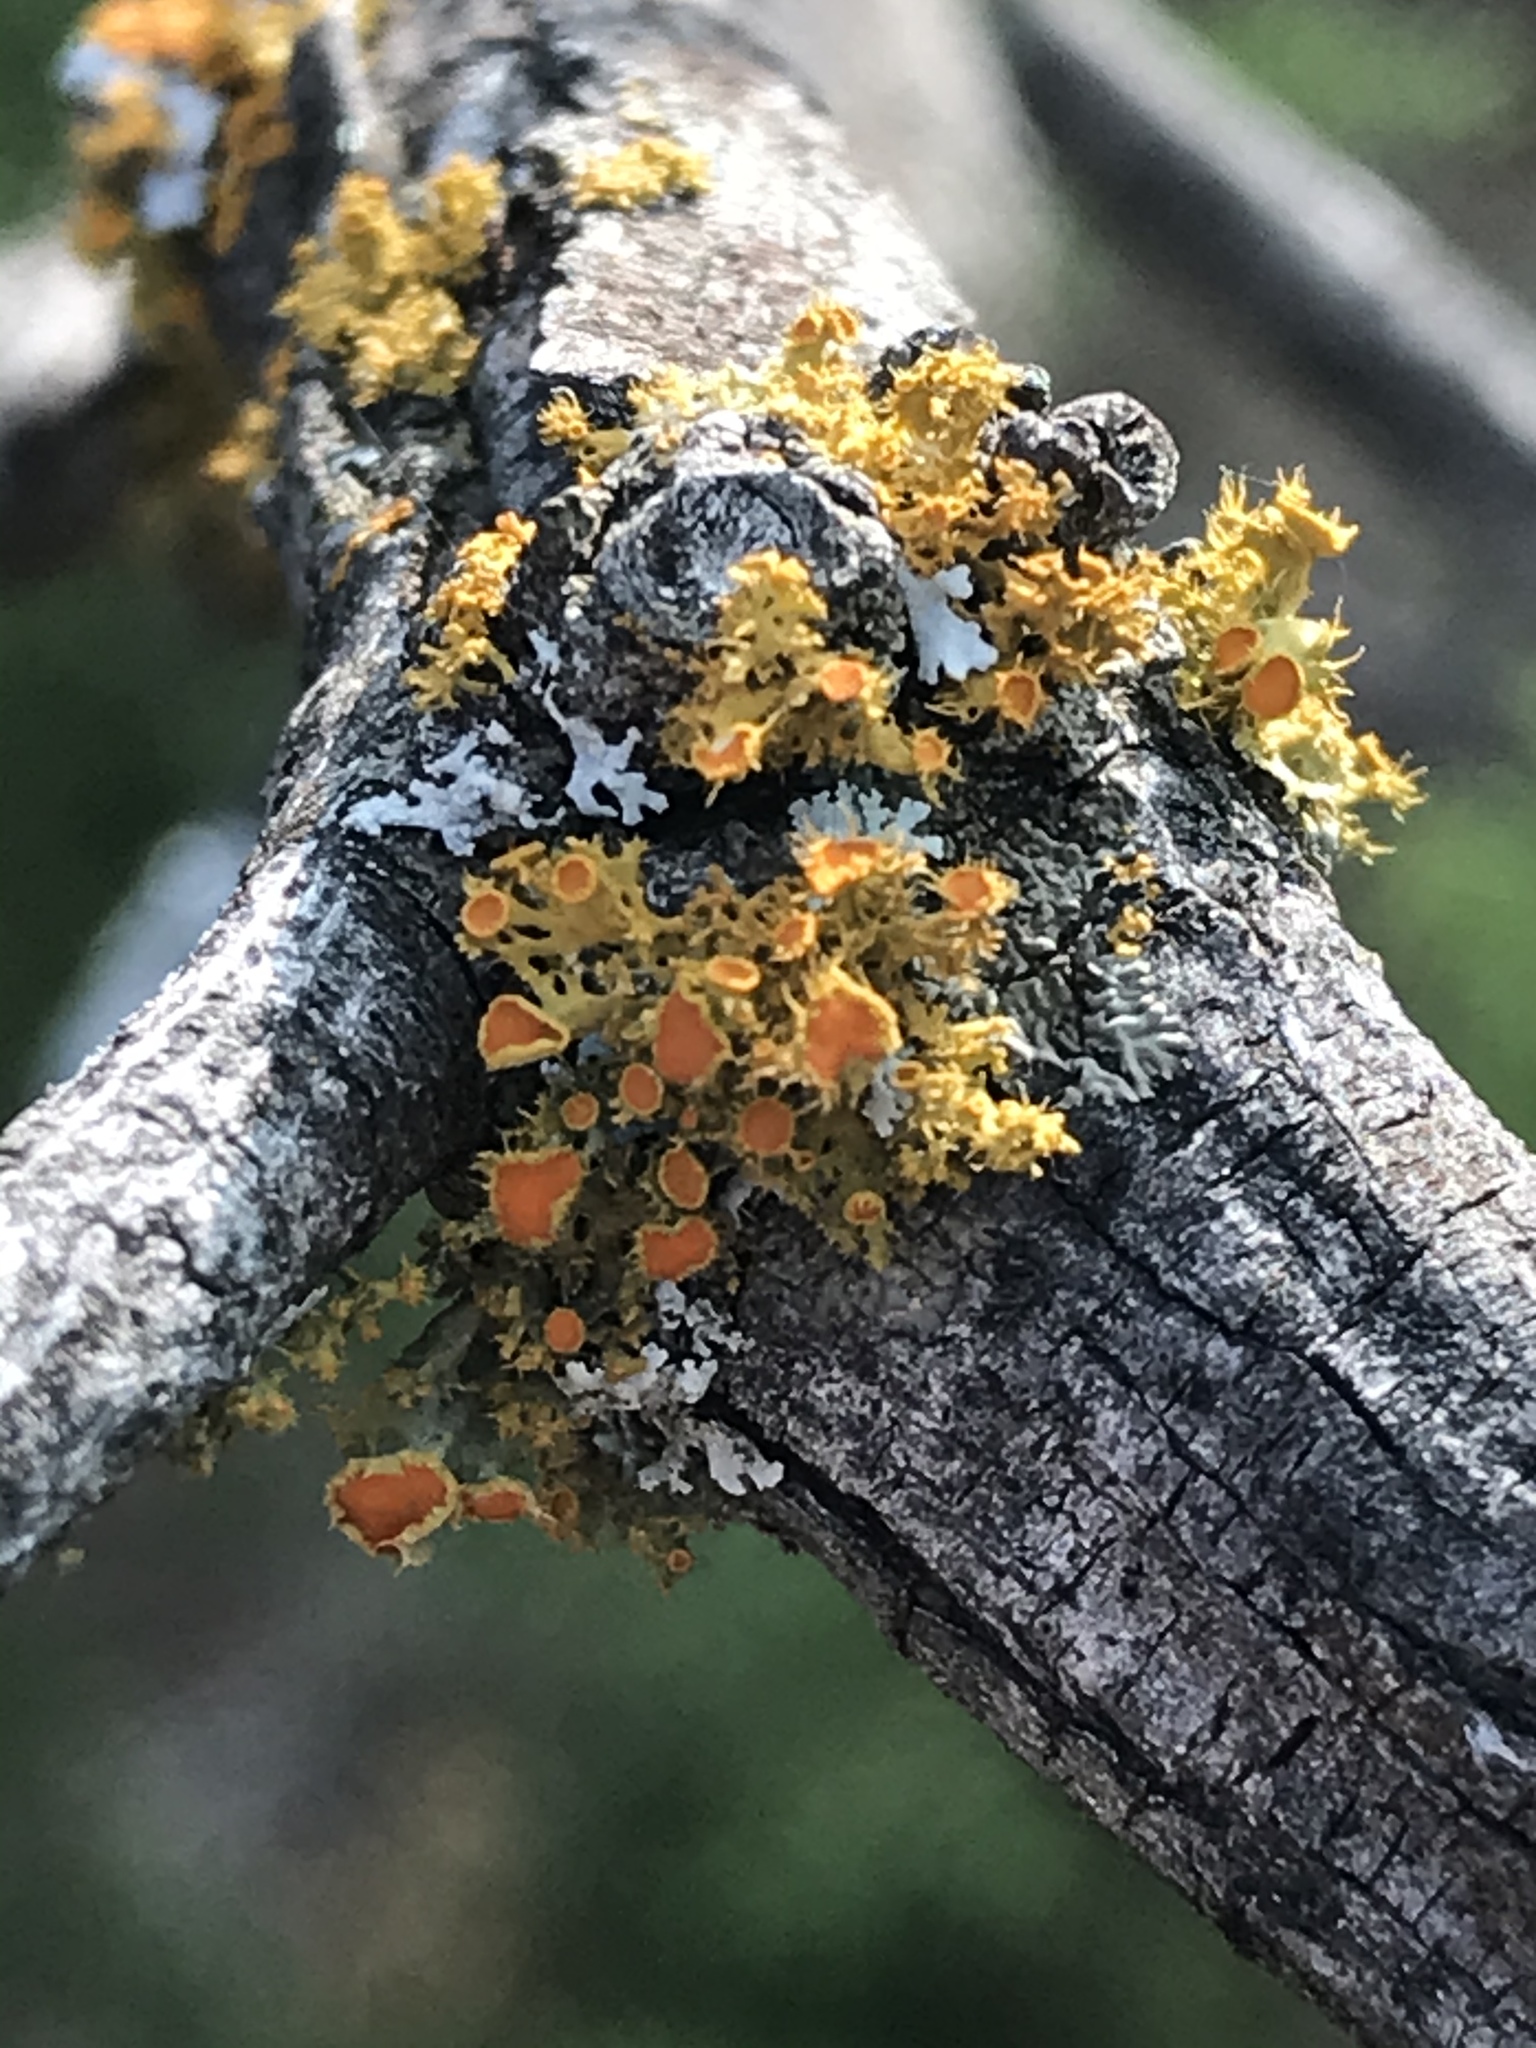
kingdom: Fungi
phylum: Ascomycota
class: Lecanoromycetes
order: Teloschistales
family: Teloschistaceae
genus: Niorma
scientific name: Niorma chrysophthalma
